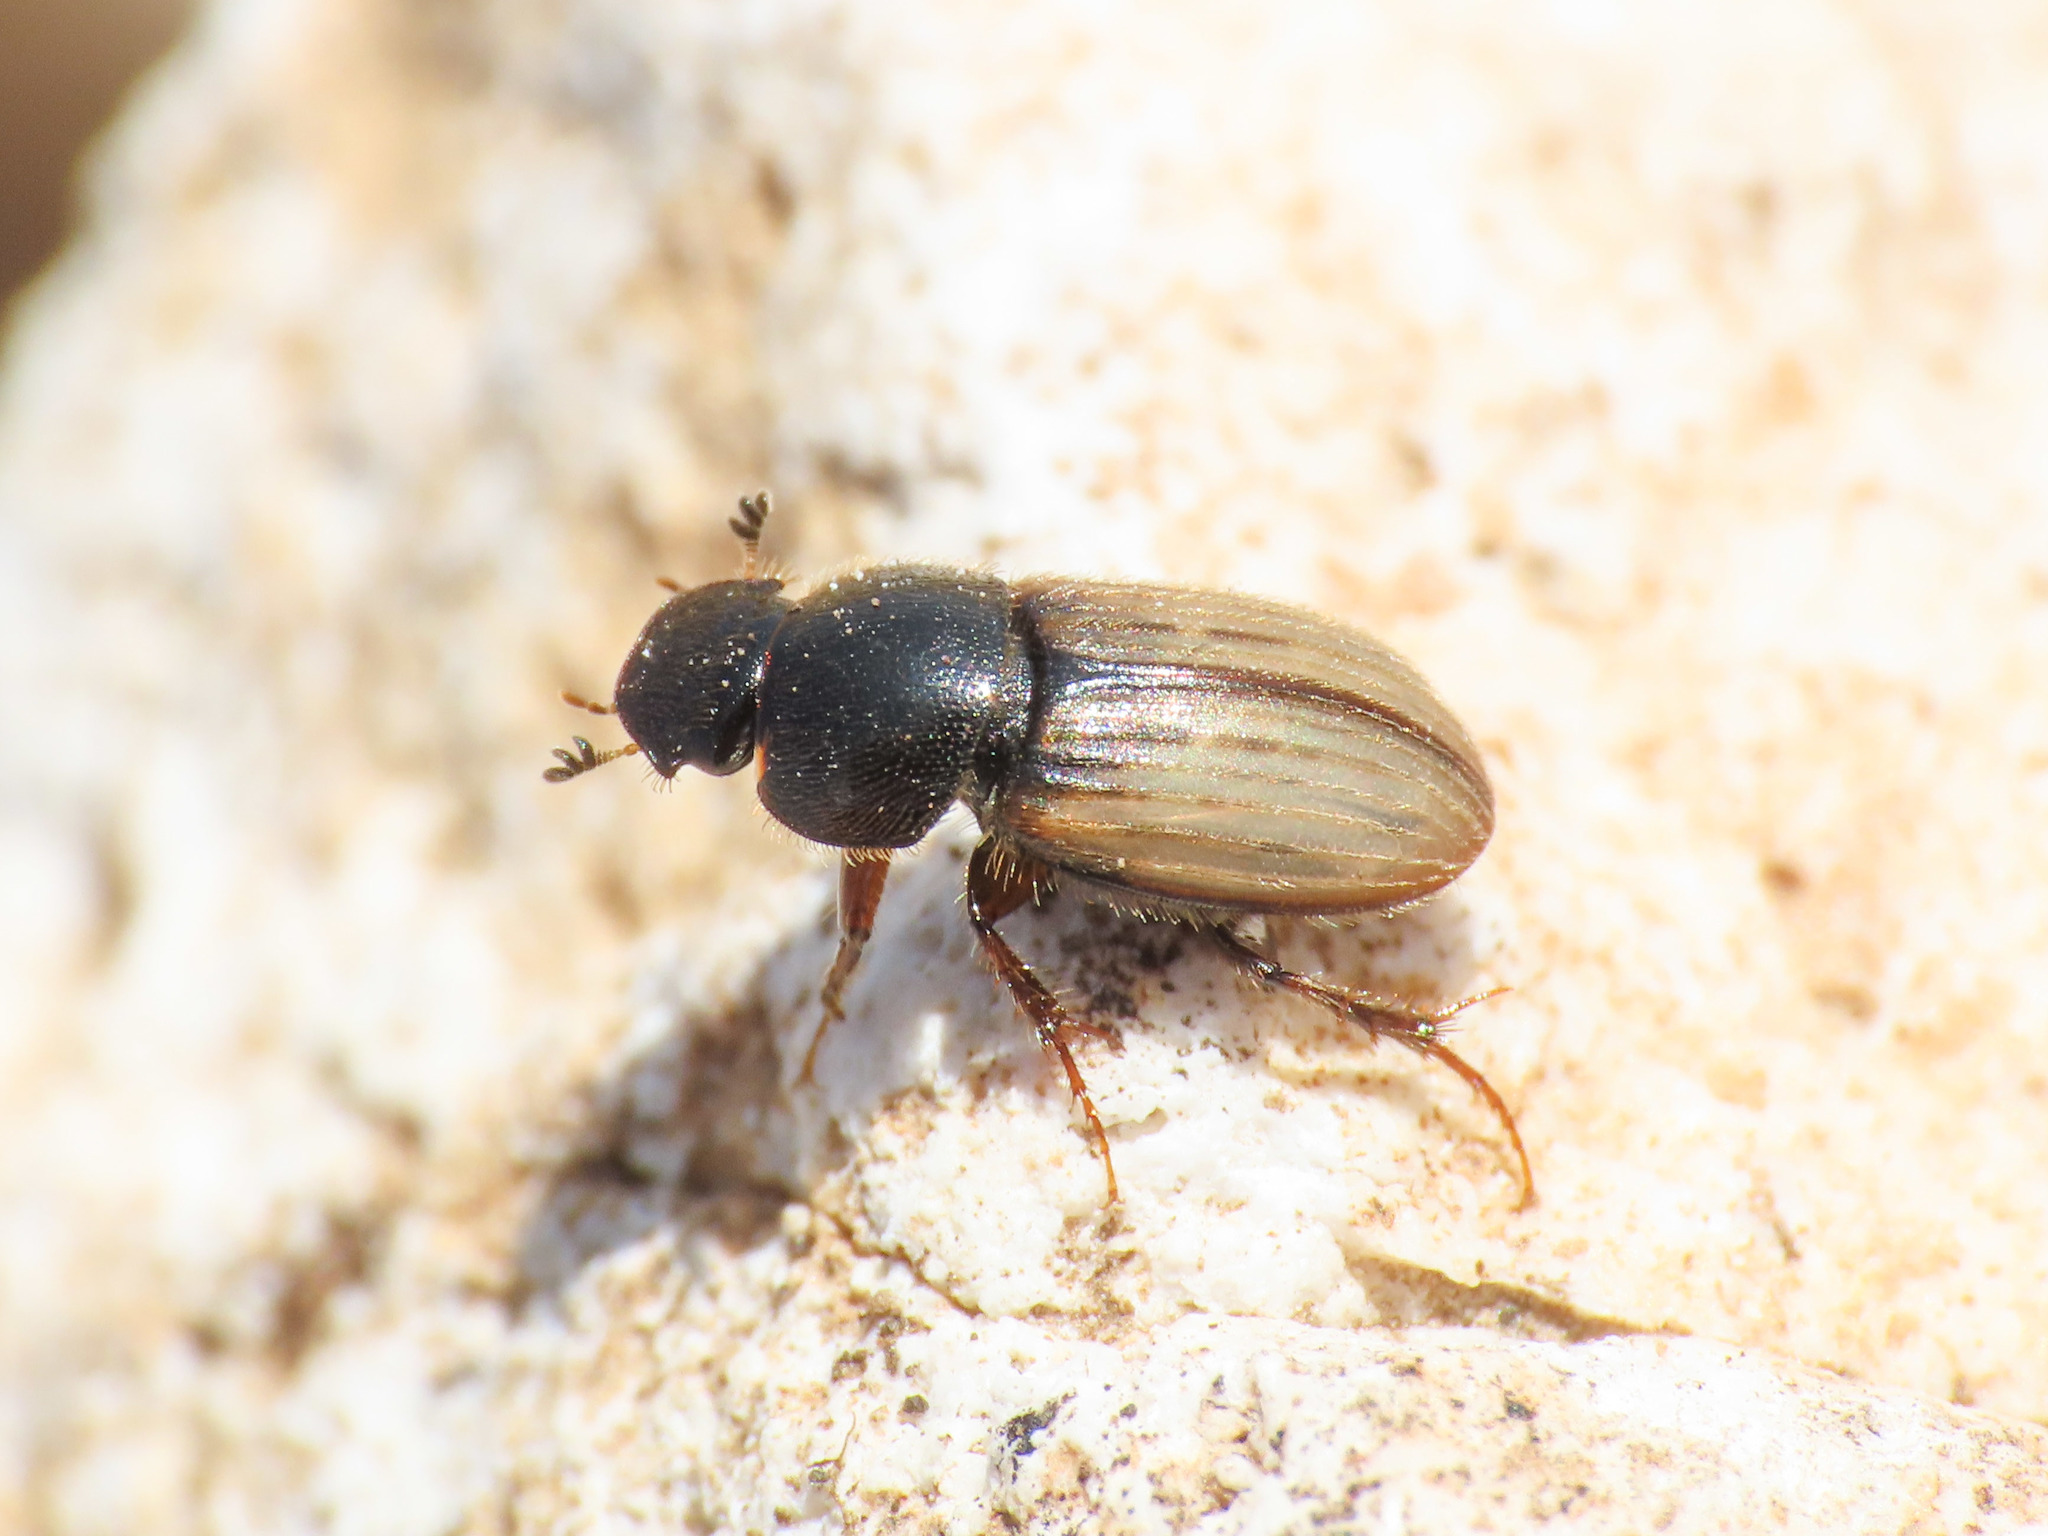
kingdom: Animalia
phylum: Arthropoda
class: Insecta
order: Coleoptera
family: Scarabaeidae
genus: Euheptaulacus
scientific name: Euheptaulacus carinatus
